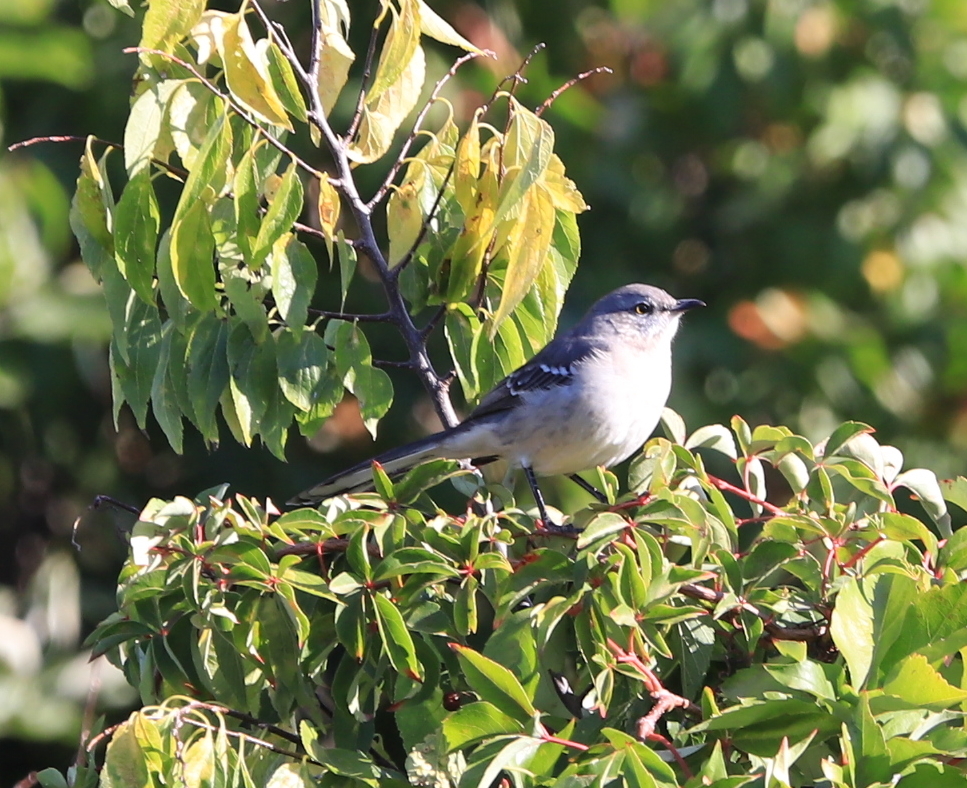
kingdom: Animalia
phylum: Chordata
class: Aves
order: Passeriformes
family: Mimidae
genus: Mimus
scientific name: Mimus polyglottos
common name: Northern mockingbird
